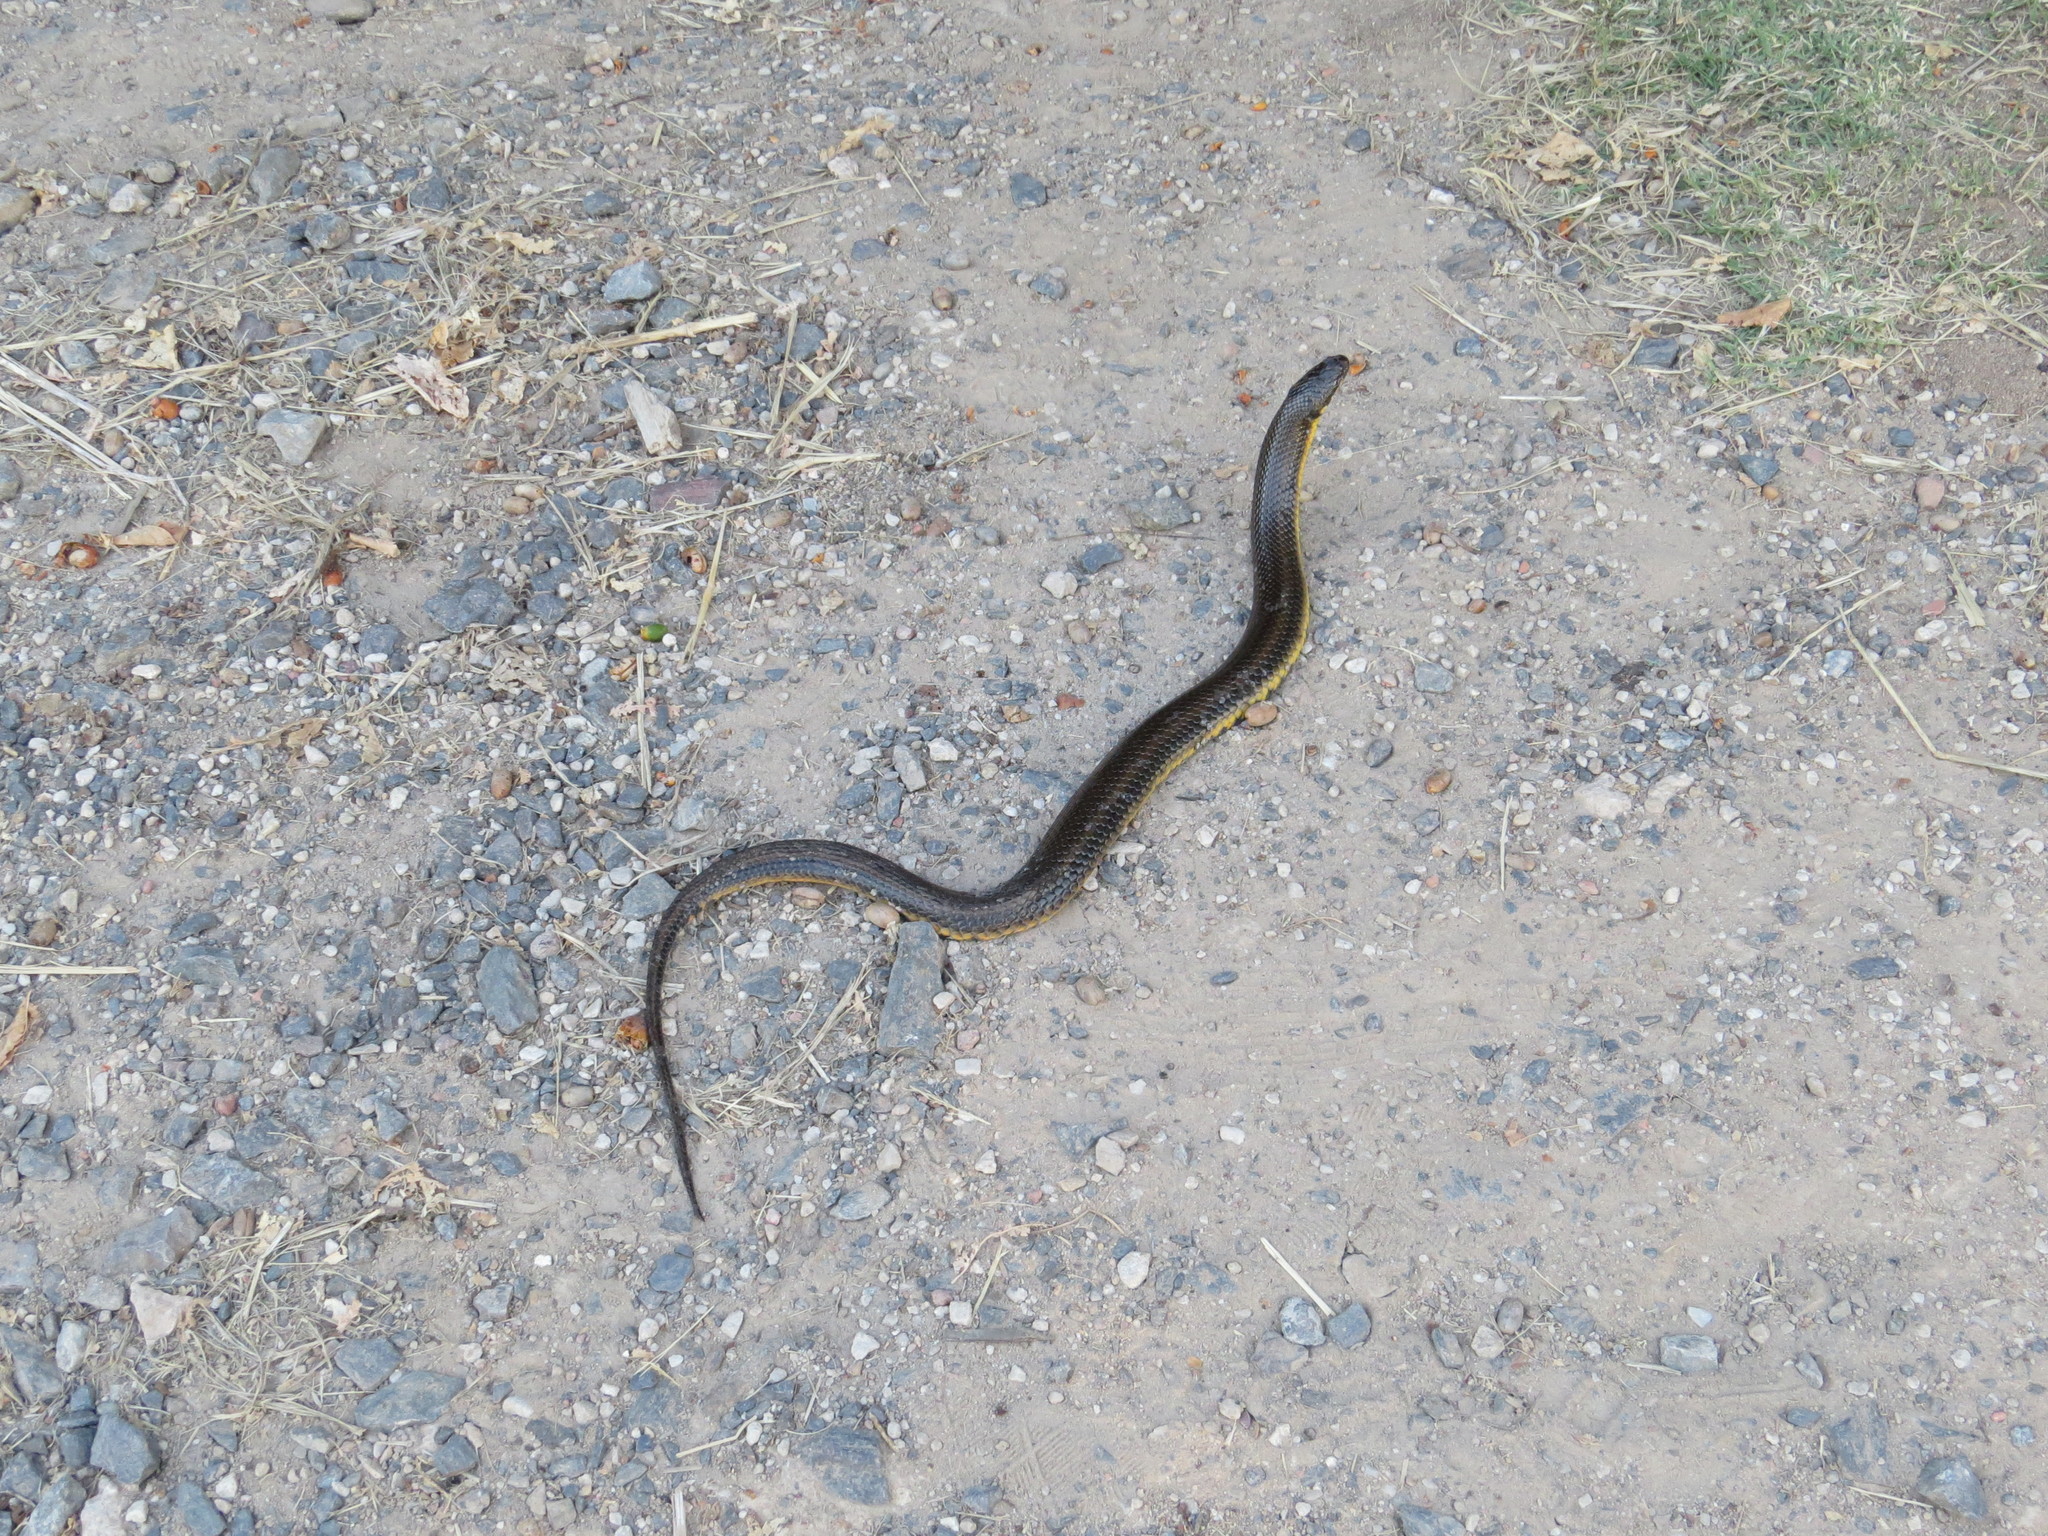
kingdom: Animalia
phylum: Chordata
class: Squamata
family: Colubridae
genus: Helicops
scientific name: Helicops infrataeniatus
